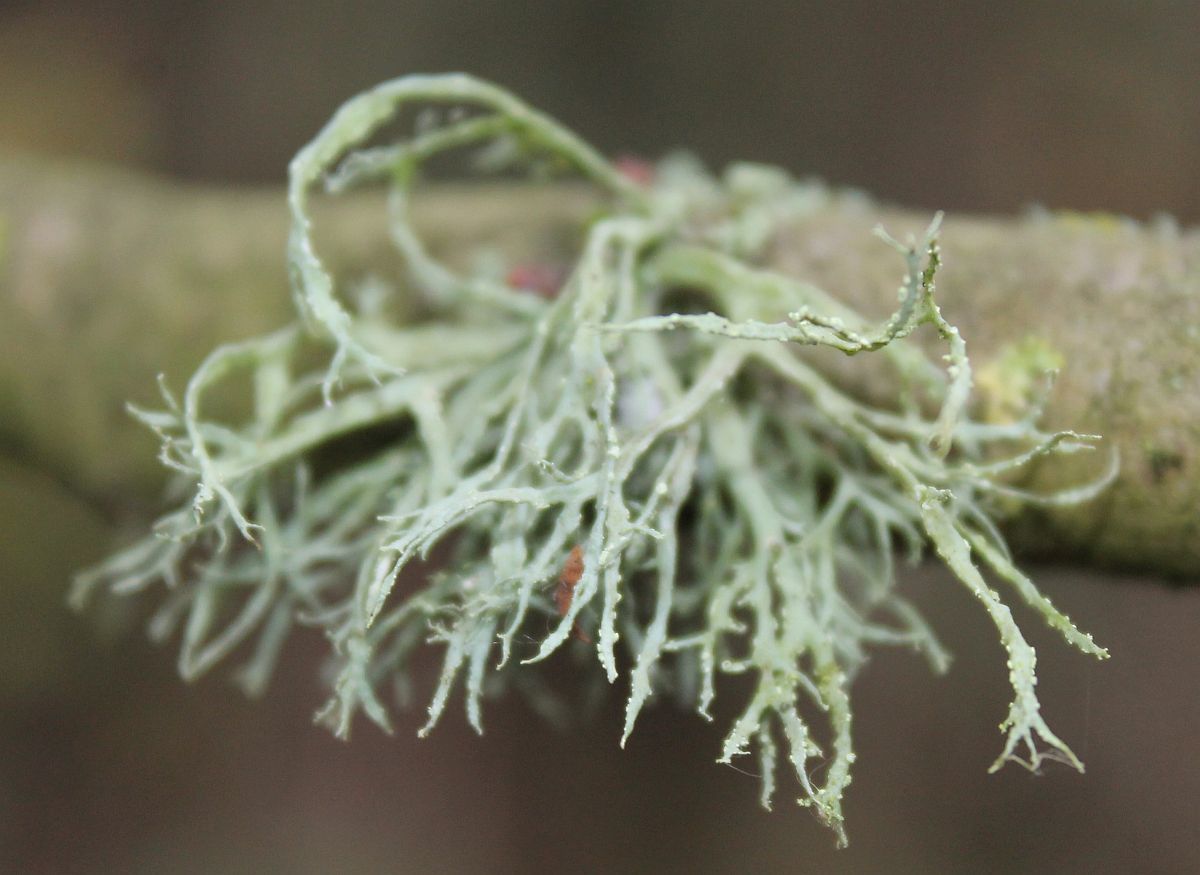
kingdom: Fungi
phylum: Ascomycota
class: Lecanoromycetes
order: Lecanorales
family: Ramalinaceae
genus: Ramalina
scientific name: Ramalina farinacea
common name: Farinose cartilage lichen
